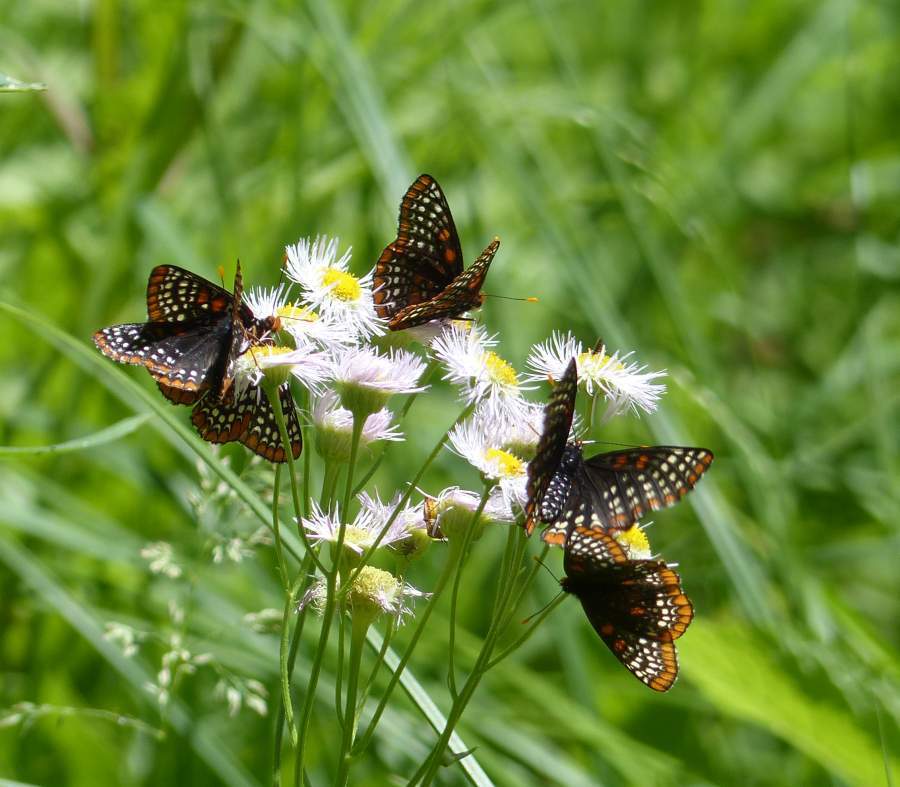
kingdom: Animalia
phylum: Arthropoda
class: Insecta
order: Lepidoptera
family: Nymphalidae
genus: Euphydryas
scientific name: Euphydryas phaeton
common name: Baltimore checkerspot
